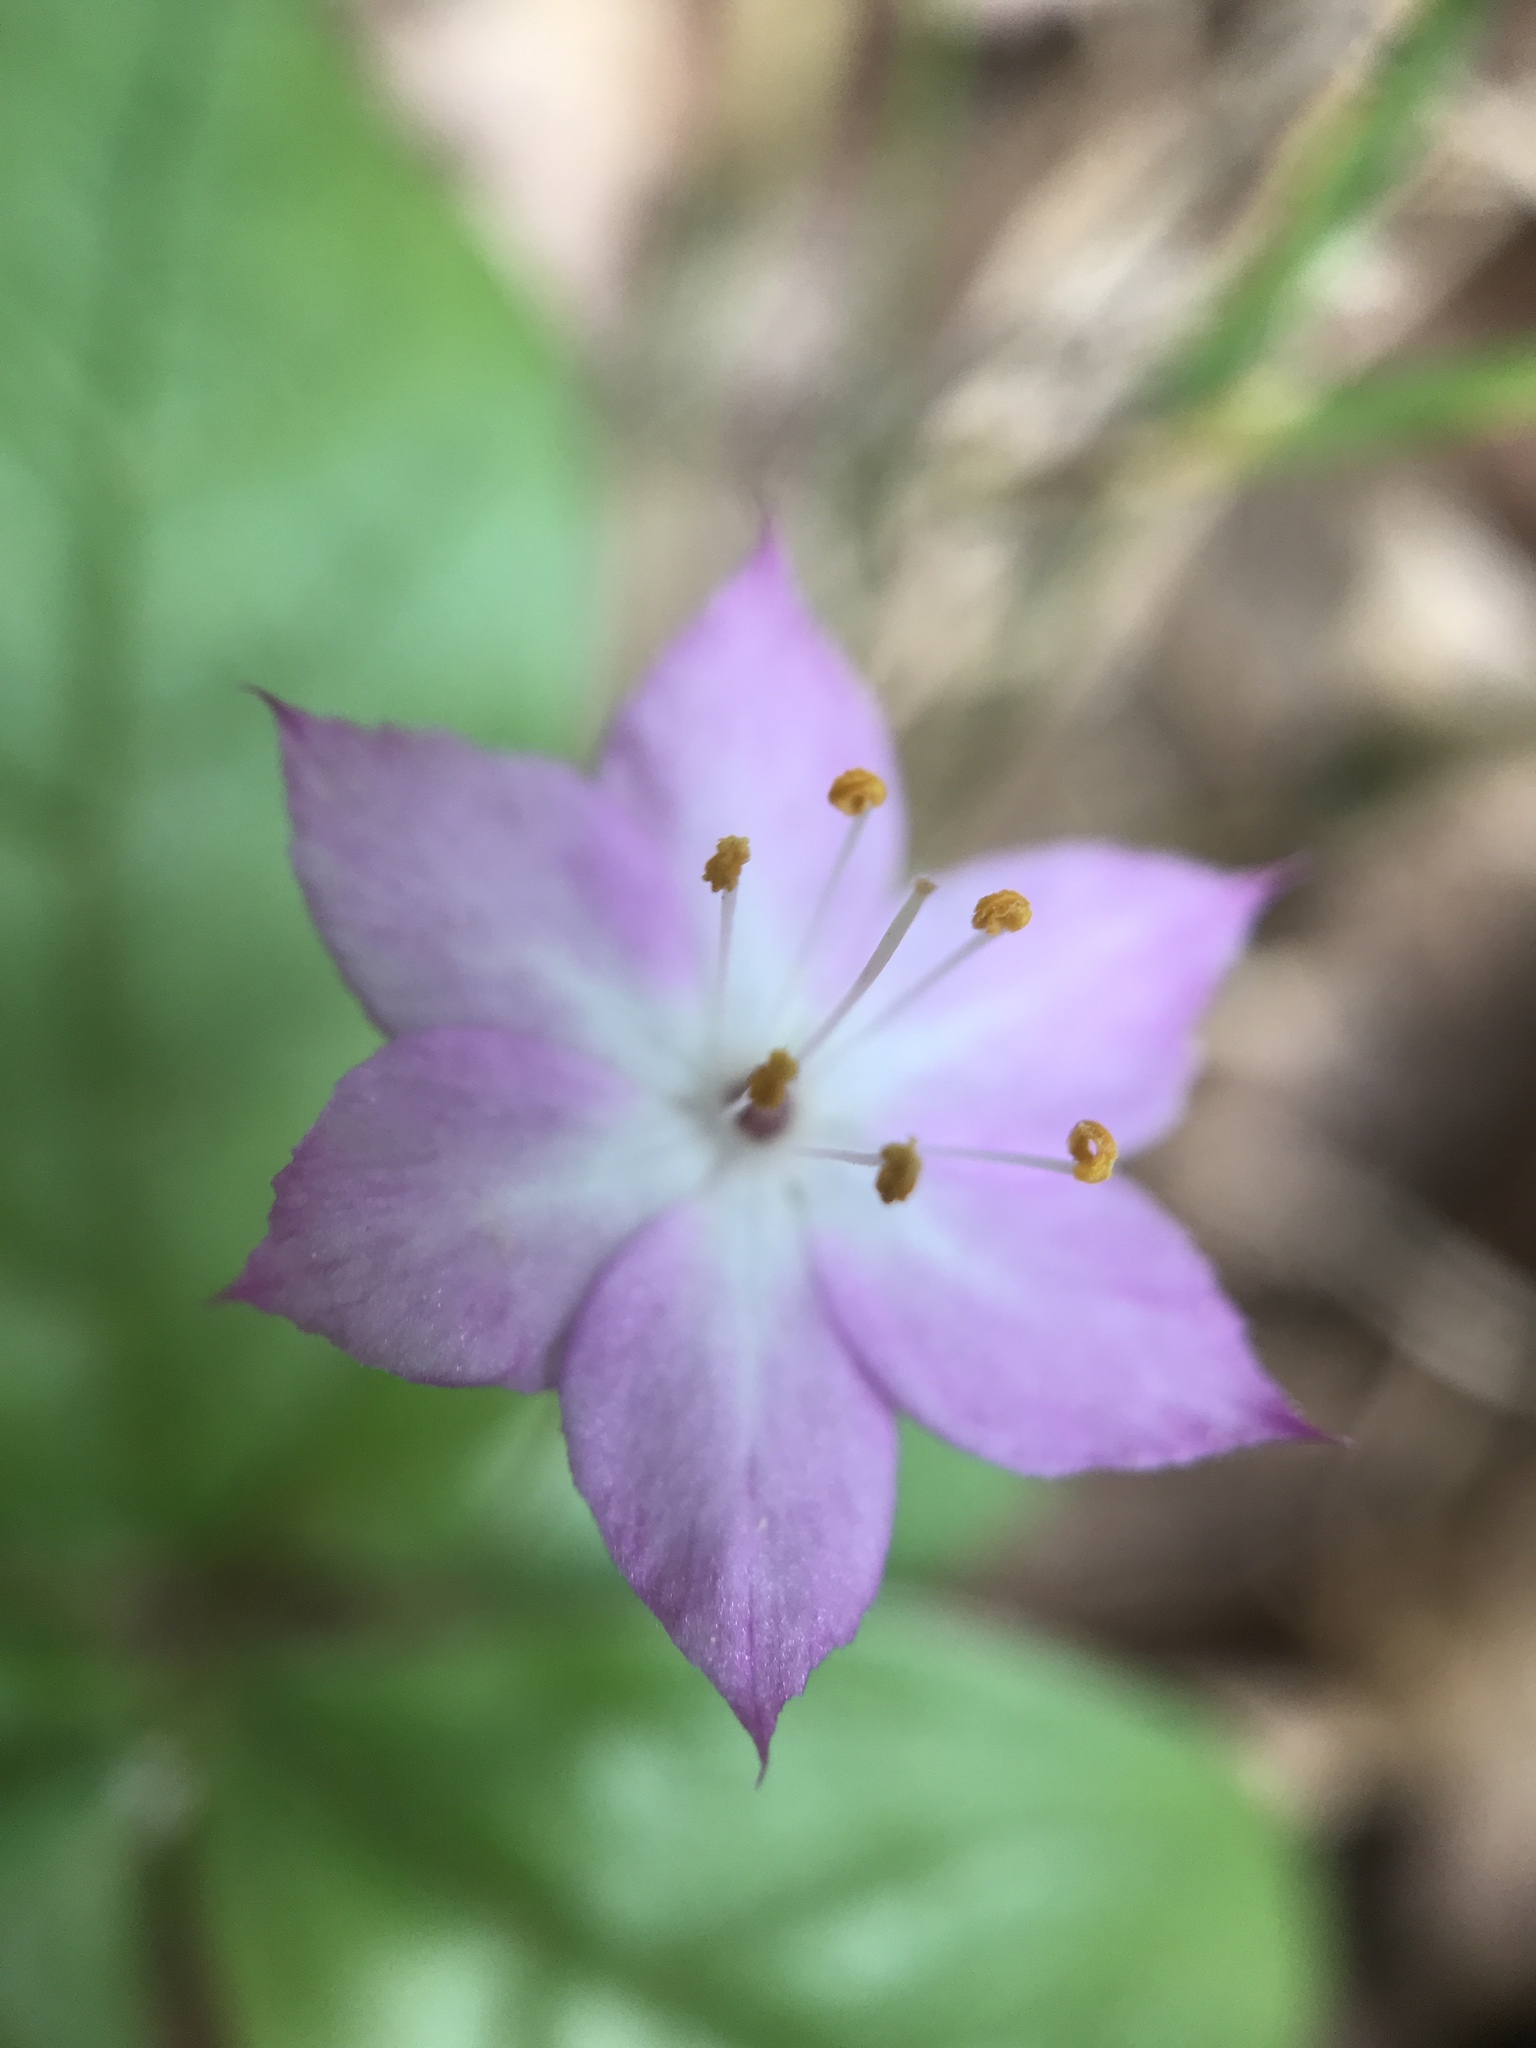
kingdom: Plantae
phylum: Tracheophyta
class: Magnoliopsida
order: Ericales
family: Primulaceae
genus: Lysimachia
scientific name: Lysimachia latifolia
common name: Pacific starflower
